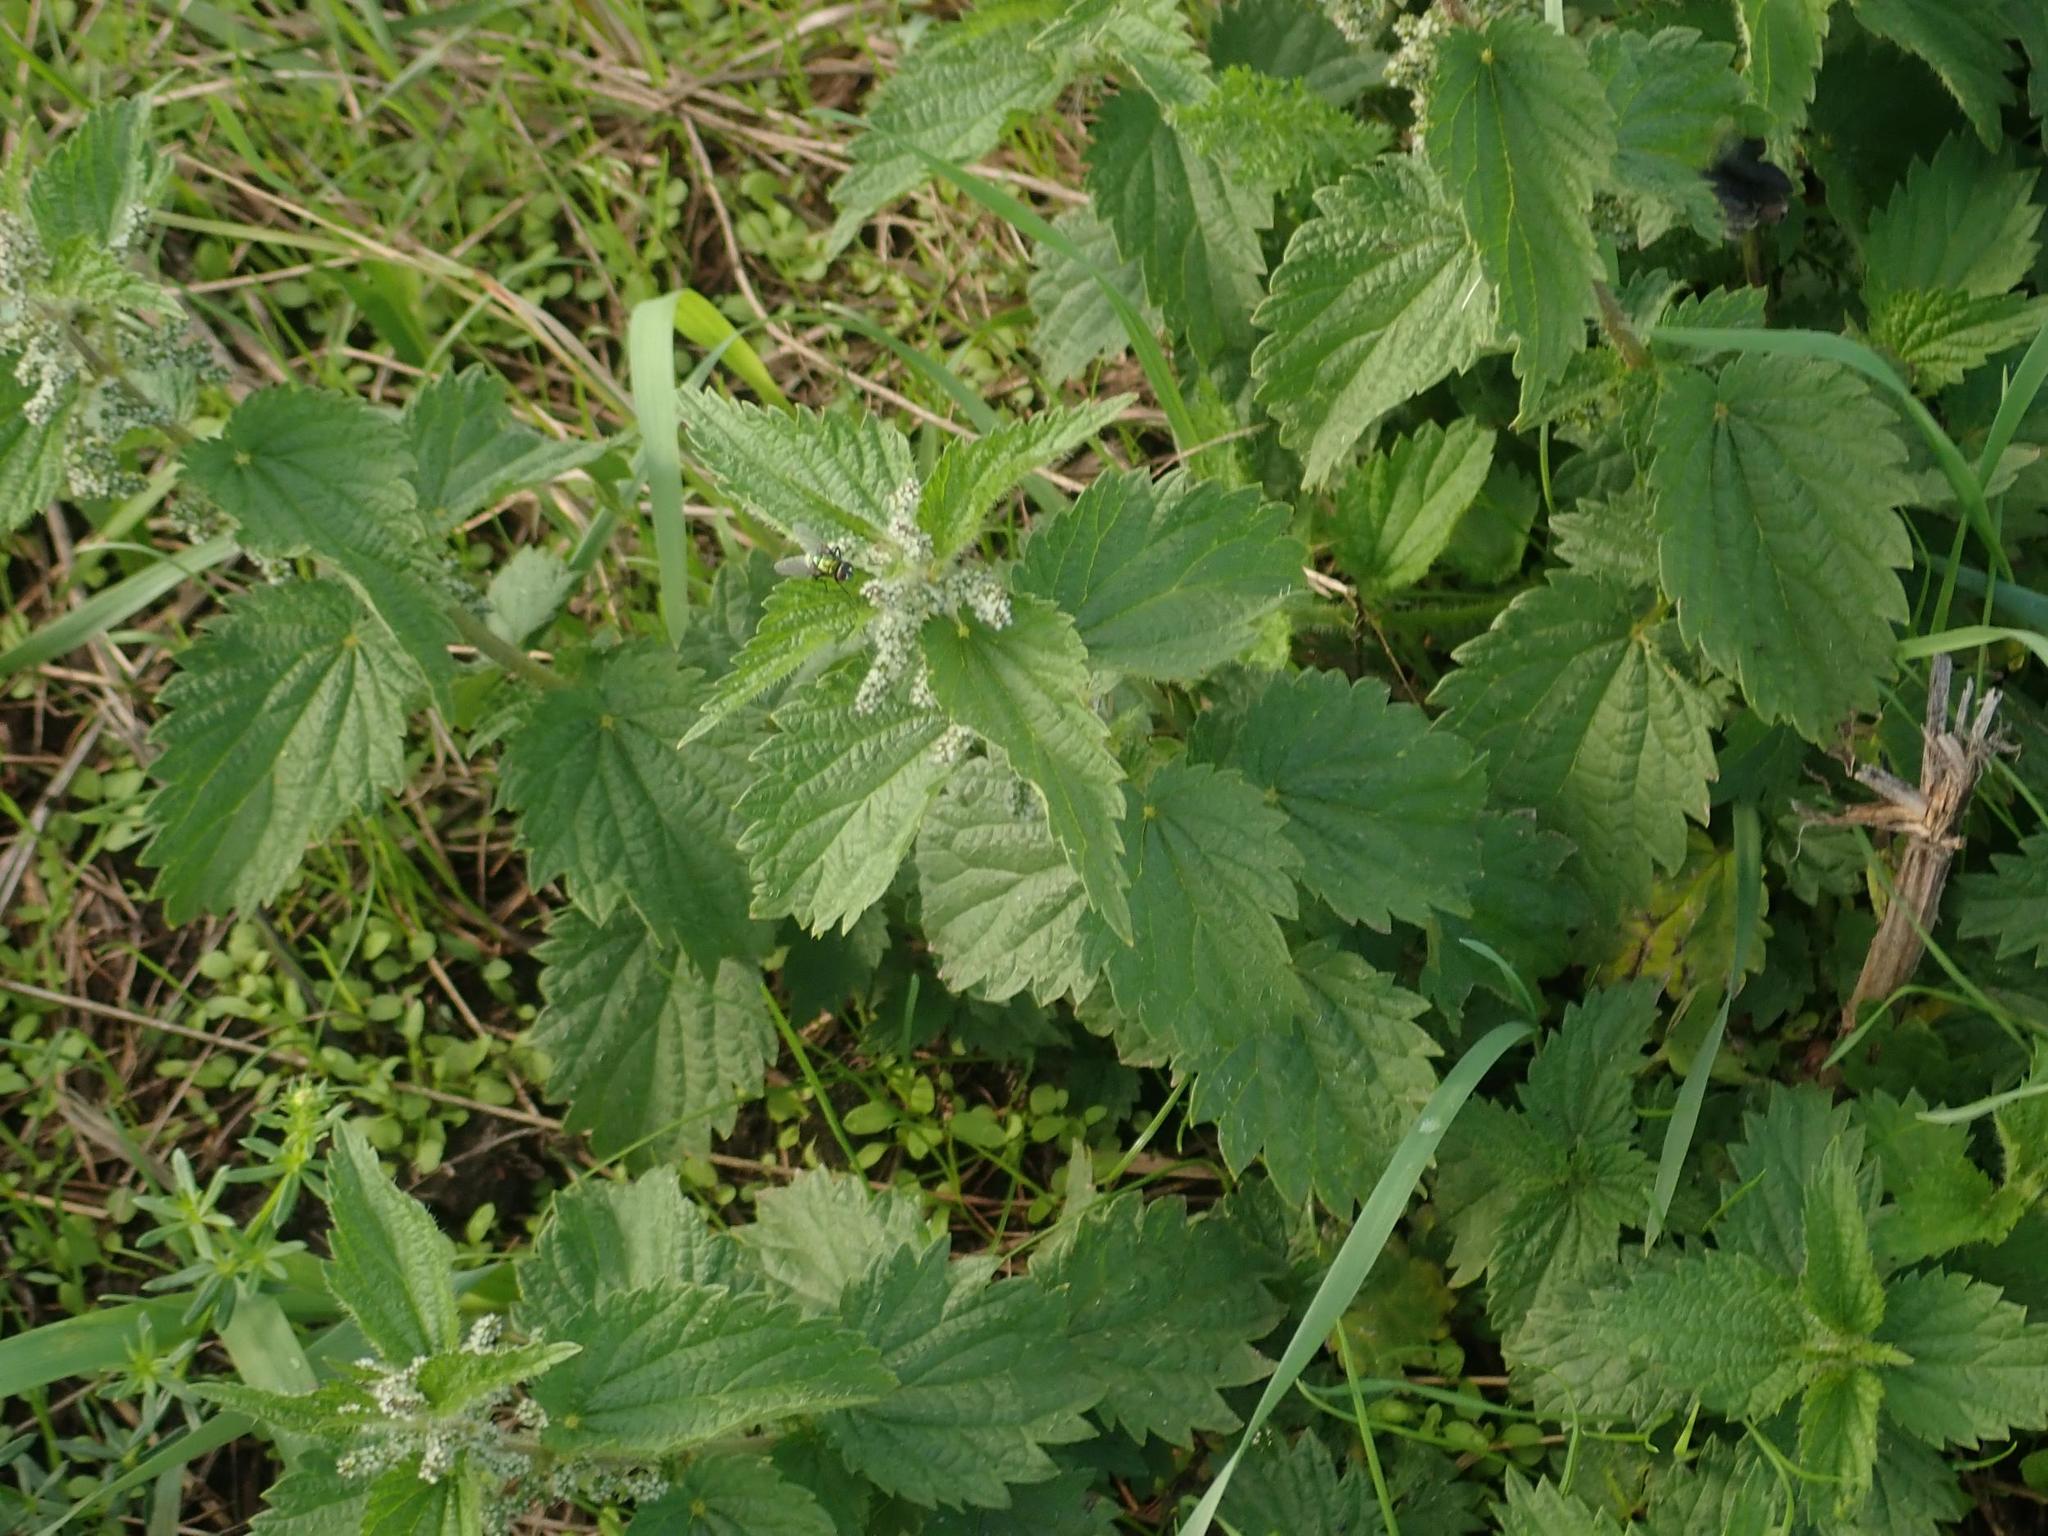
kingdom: Plantae
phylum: Tracheophyta
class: Magnoliopsida
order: Rosales
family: Urticaceae
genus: Urtica
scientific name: Urtica dioica
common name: Common nettle
